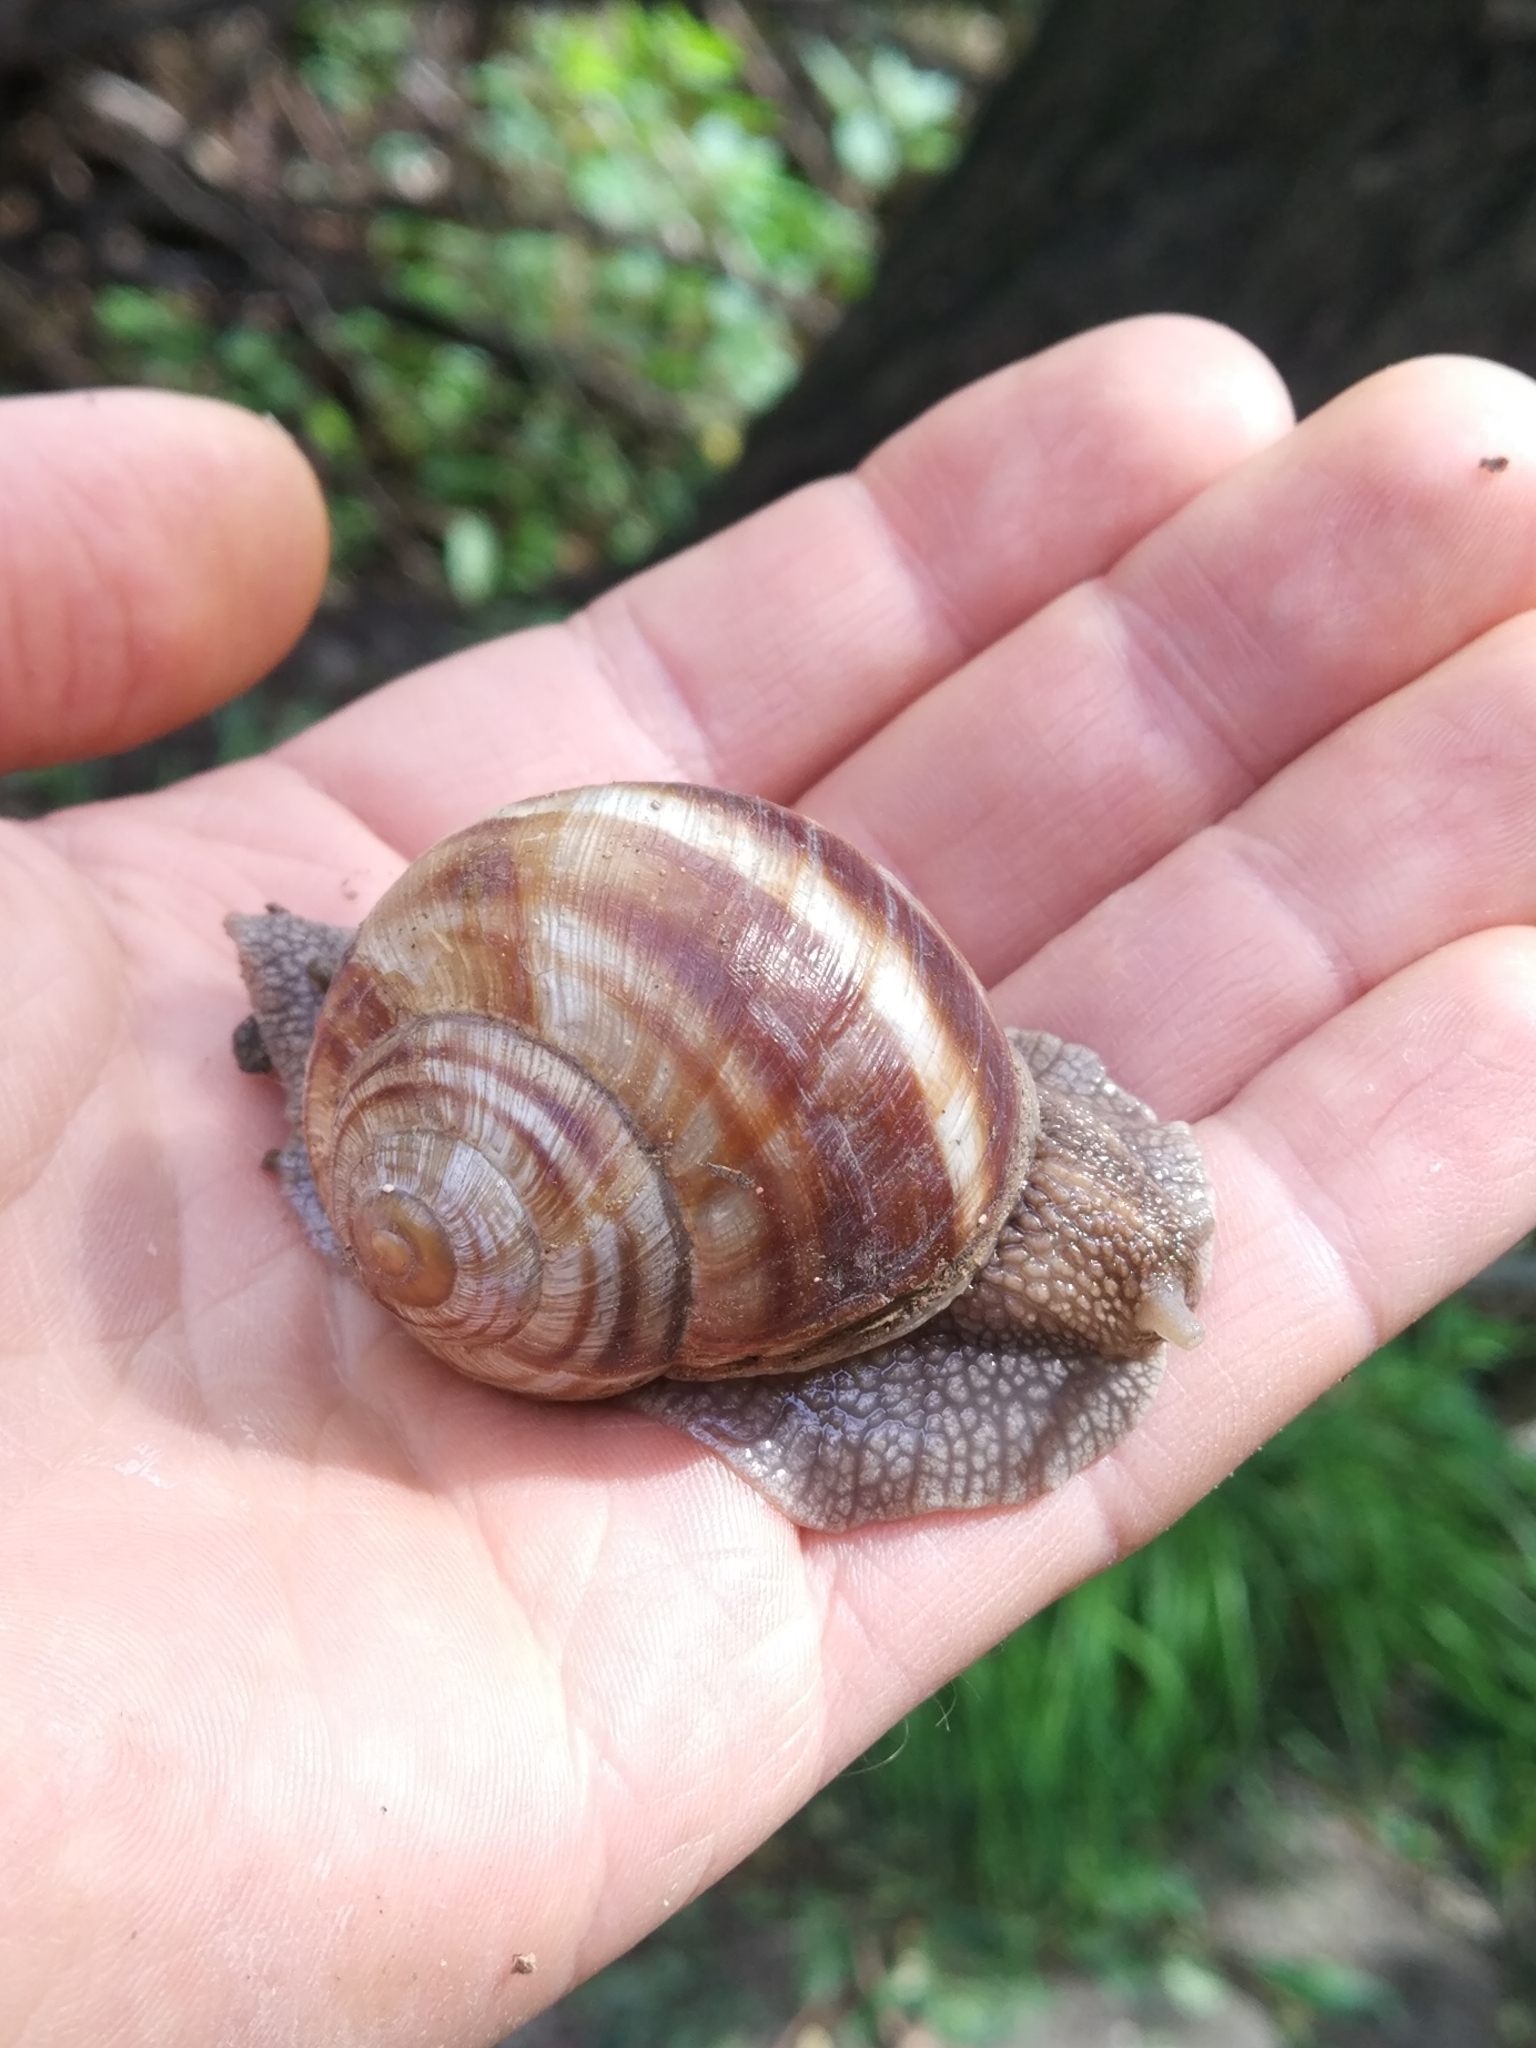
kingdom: Animalia
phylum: Mollusca
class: Gastropoda
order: Stylommatophora
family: Helicidae
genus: Helix
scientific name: Helix lucorum
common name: Turkish snail
